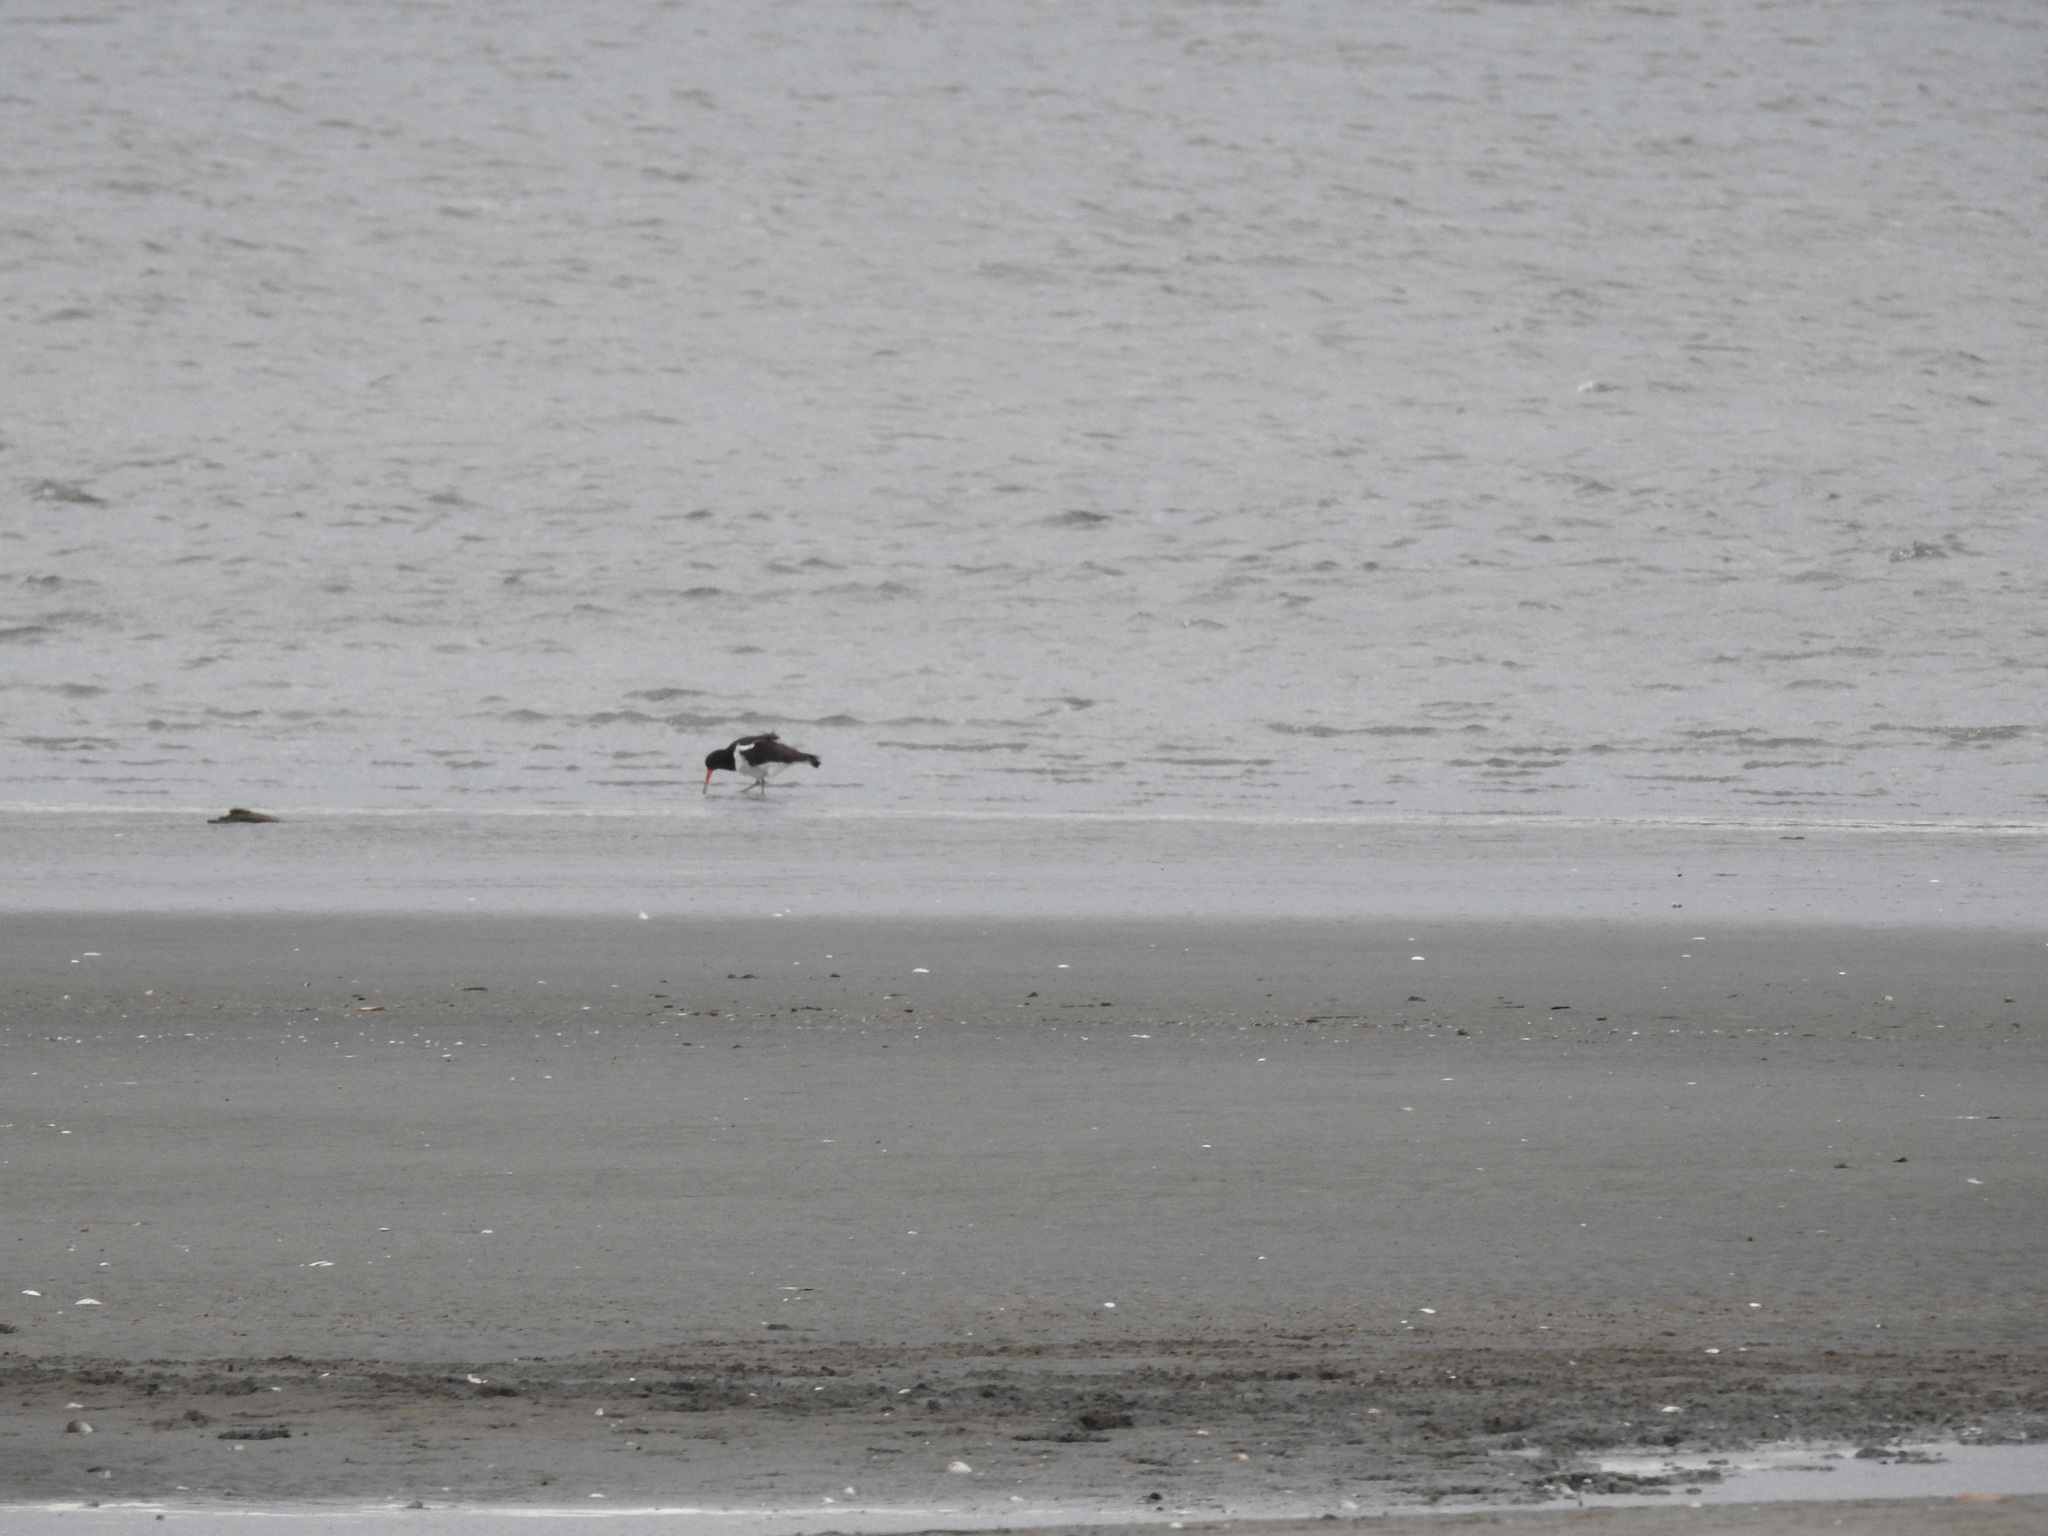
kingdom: Animalia
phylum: Chordata
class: Aves
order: Charadriiformes
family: Haematopodidae
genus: Haematopus
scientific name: Haematopus finschi
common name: South island oystercatcher
